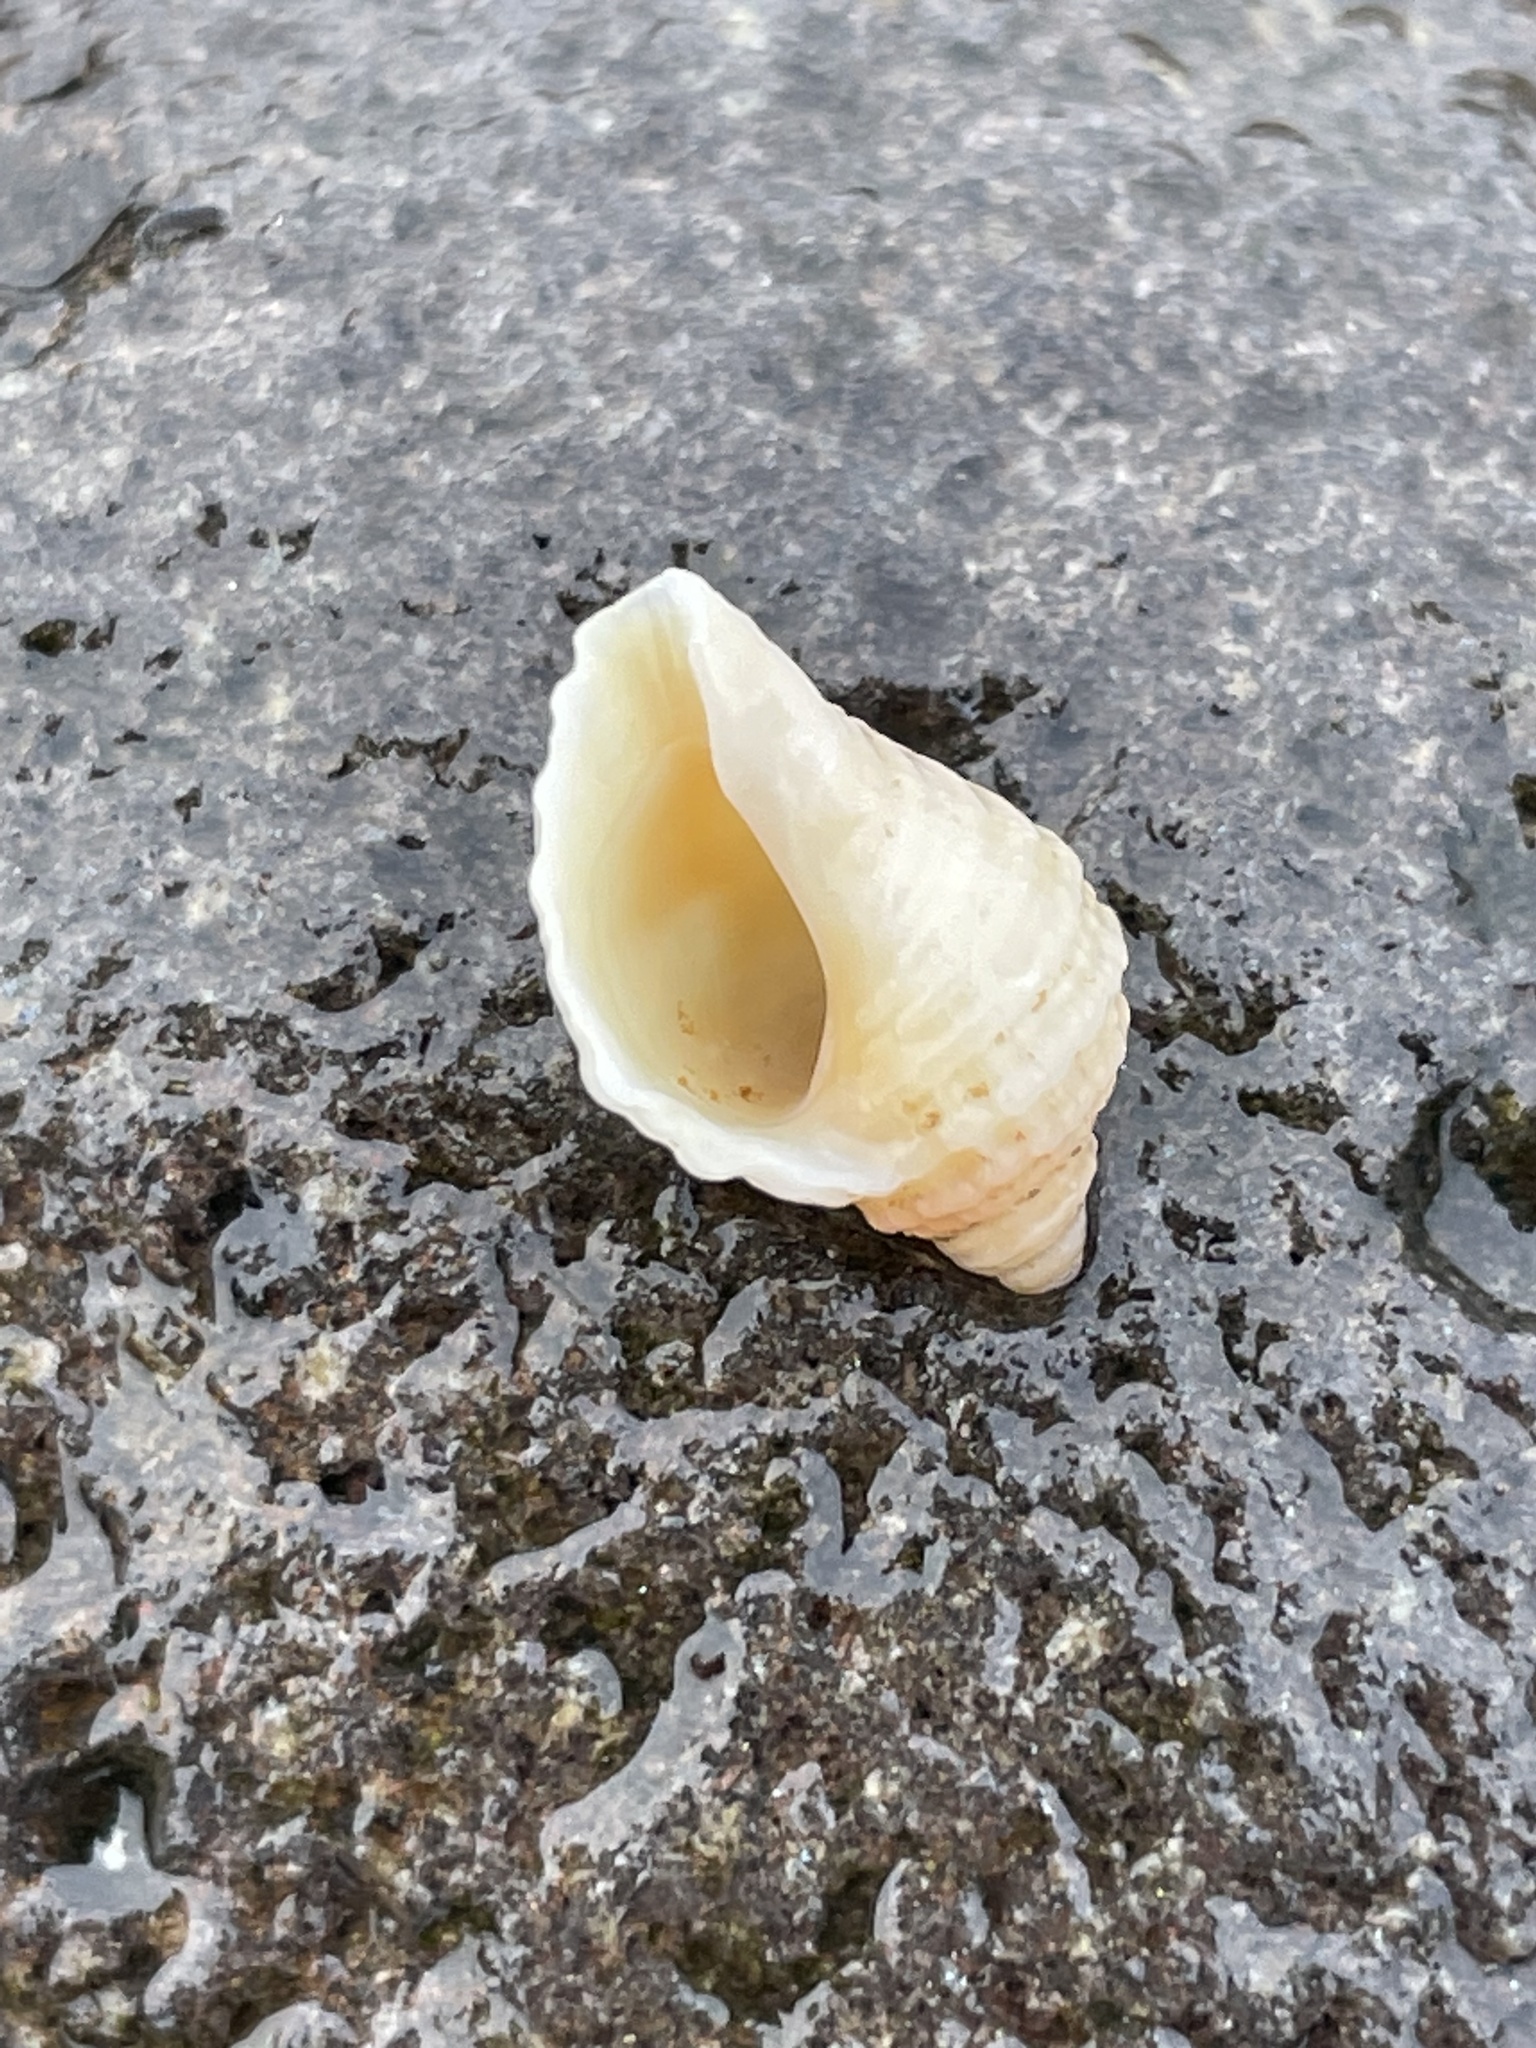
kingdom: Animalia
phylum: Mollusca
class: Gastropoda
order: Neogastropoda
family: Muricidae
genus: Nucella
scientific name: Nucella lapillus
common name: Dog whelk
